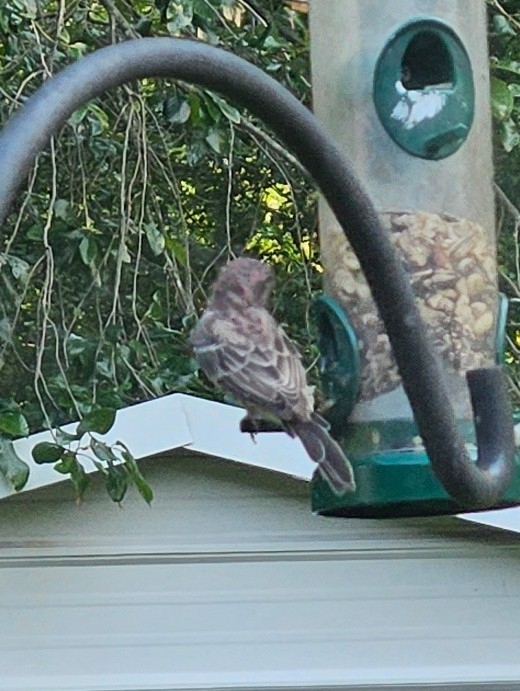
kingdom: Animalia
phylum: Chordata
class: Aves
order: Passeriformes
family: Fringillidae
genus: Haemorhous
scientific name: Haemorhous mexicanus
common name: House finch
